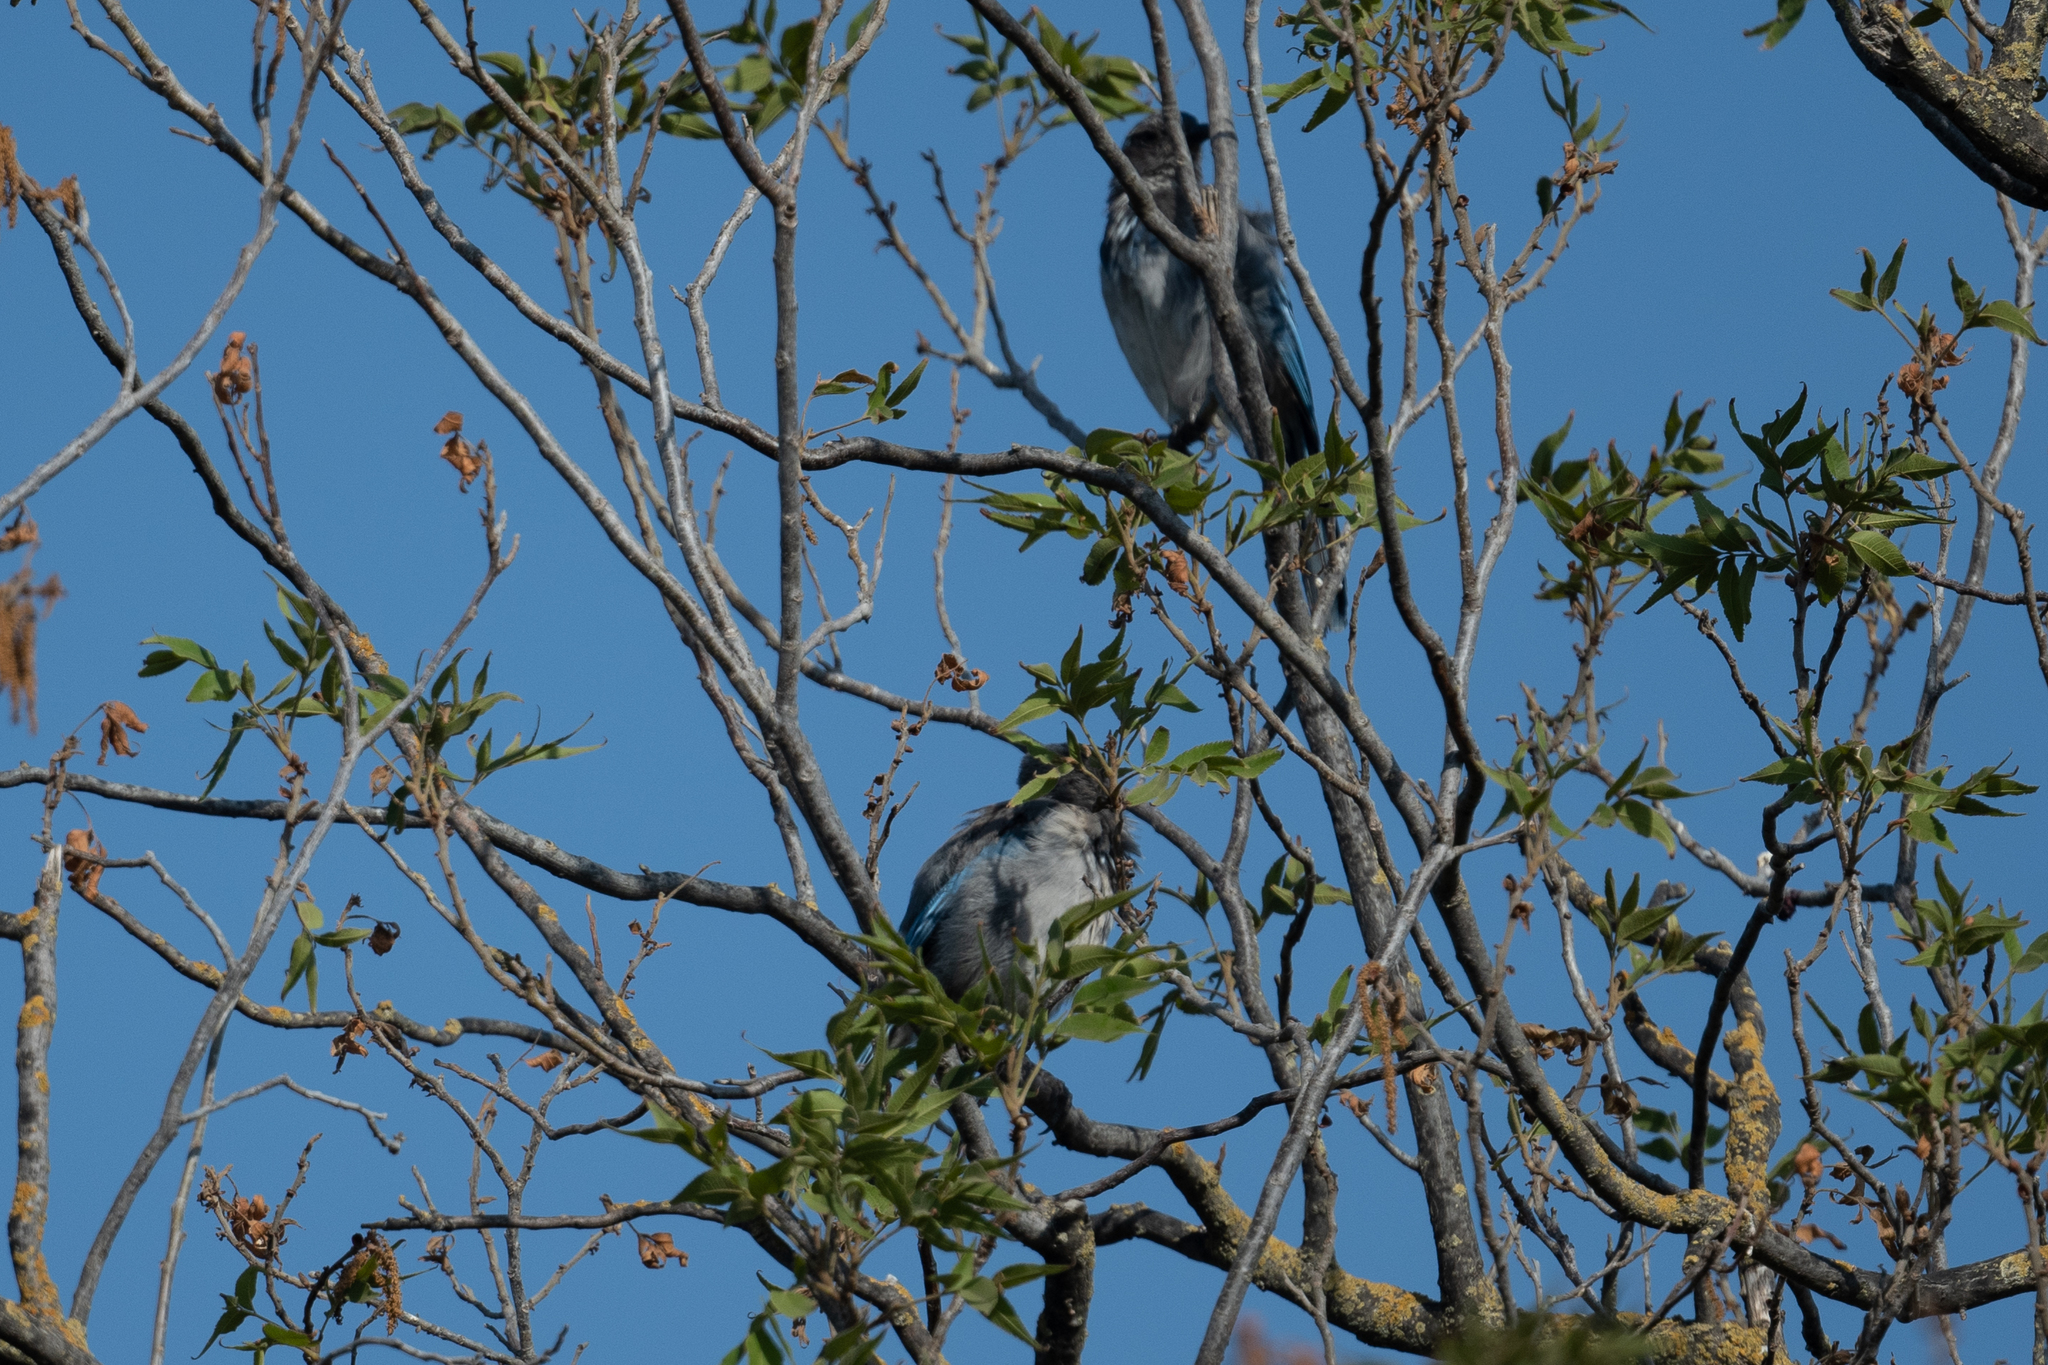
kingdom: Animalia
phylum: Chordata
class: Aves
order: Passeriformes
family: Corvidae
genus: Aphelocoma
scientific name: Aphelocoma californica
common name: California scrub-jay
